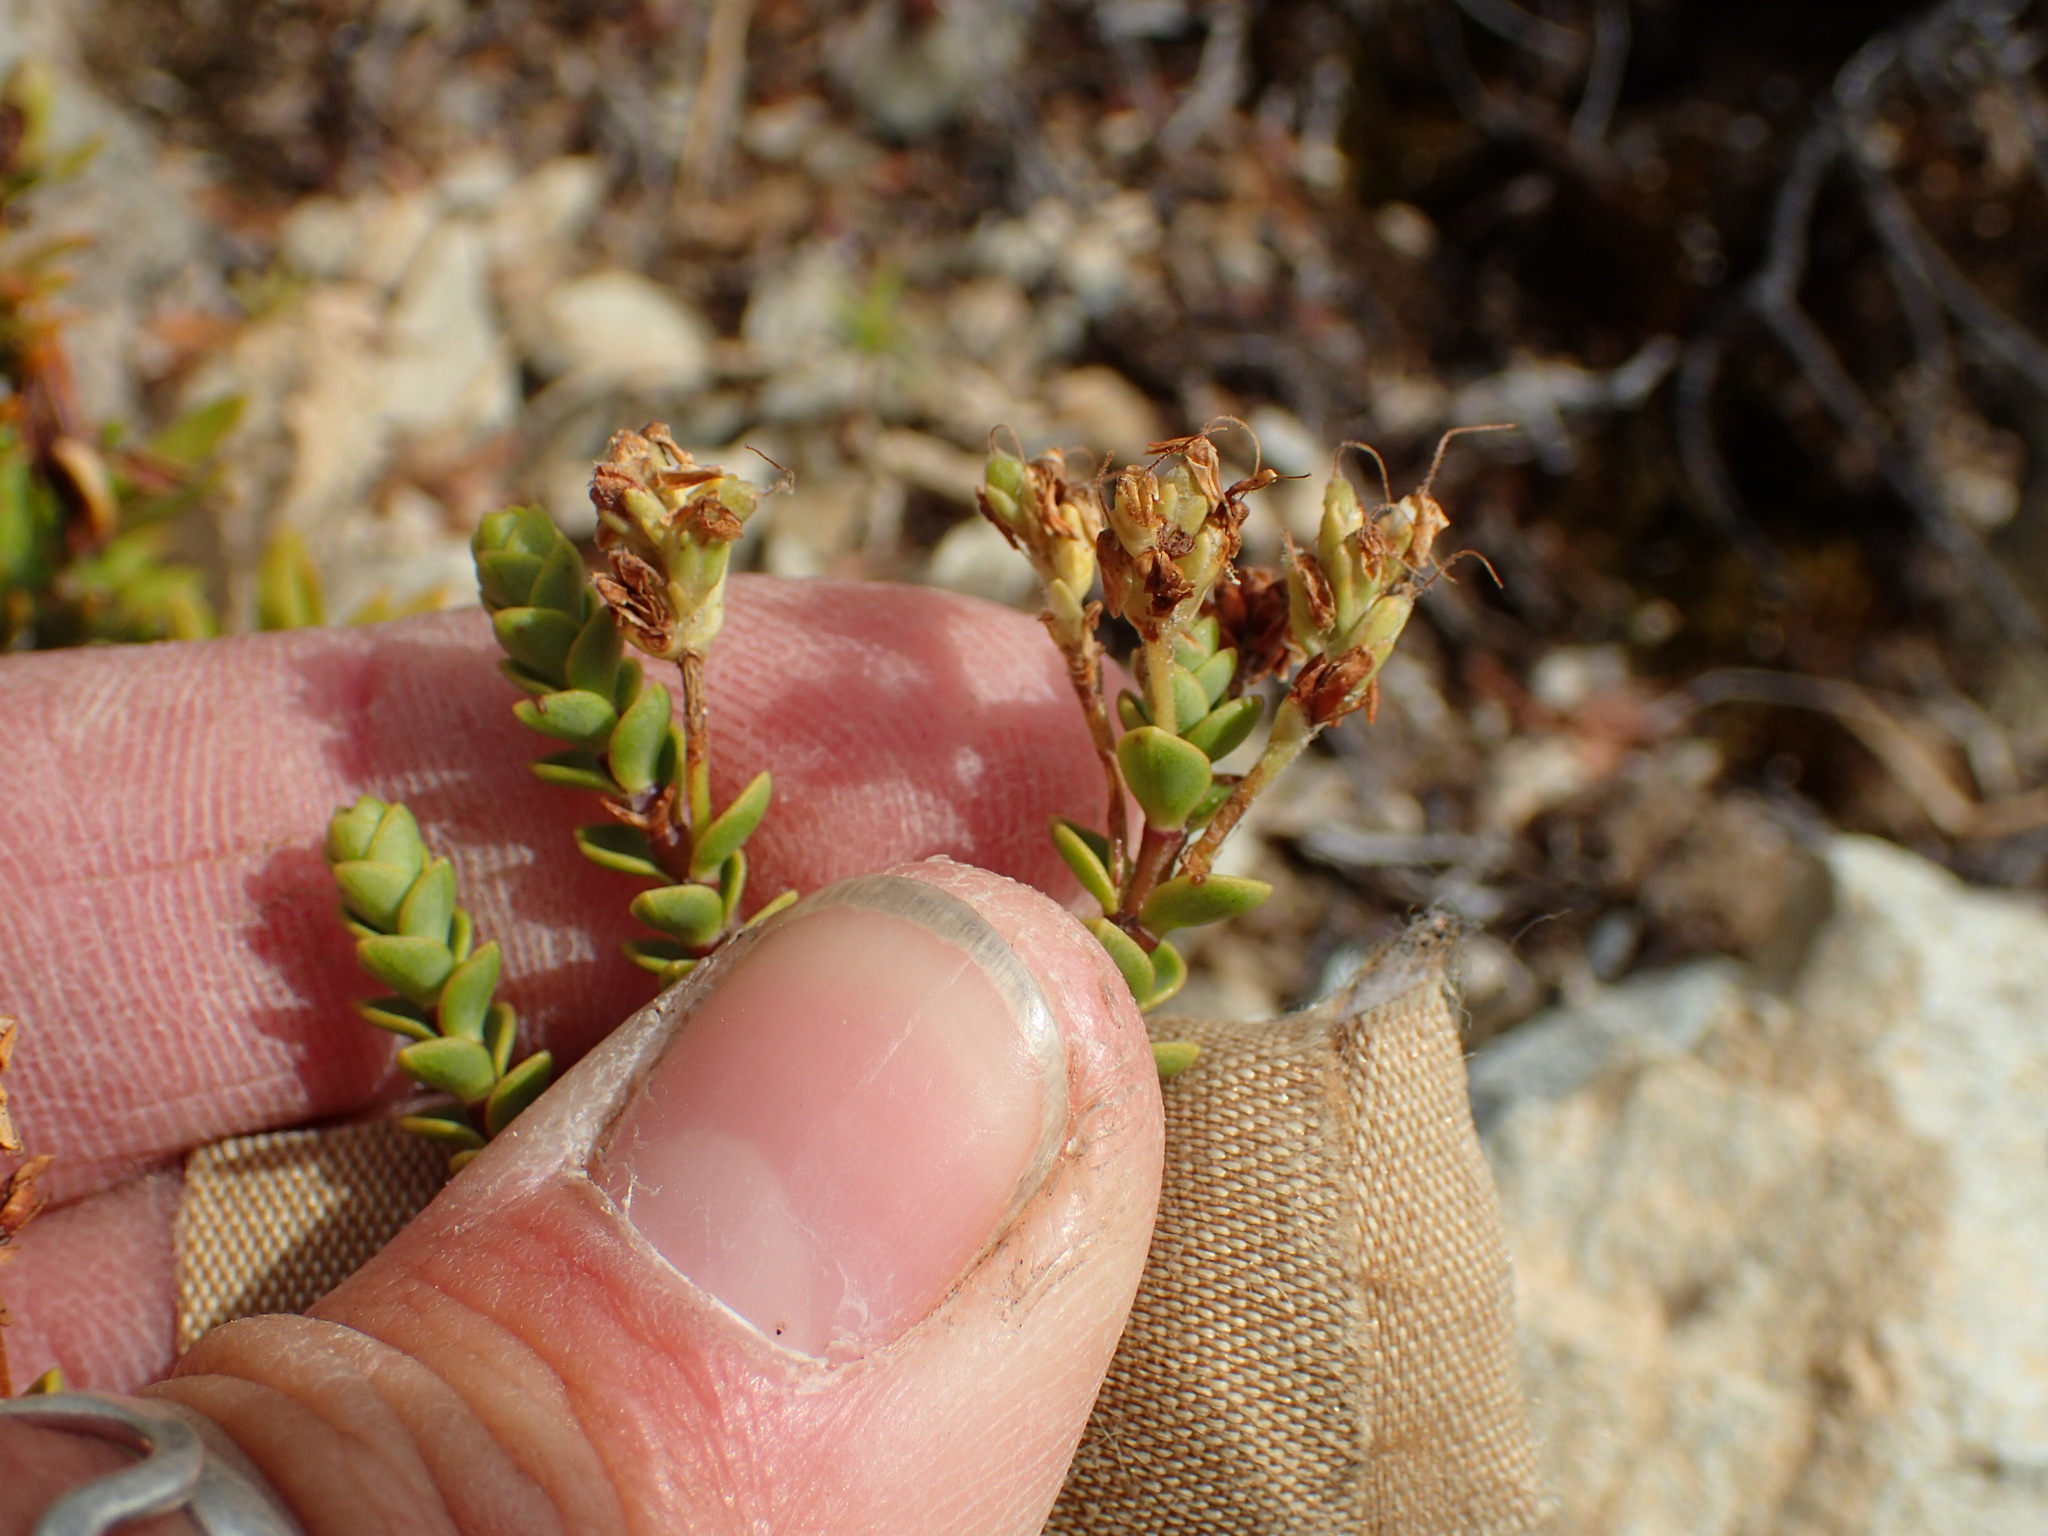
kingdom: Plantae
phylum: Tracheophyta
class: Magnoliopsida
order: Lamiales
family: Plantaginaceae
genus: Veronica
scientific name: Veronica buchananii
